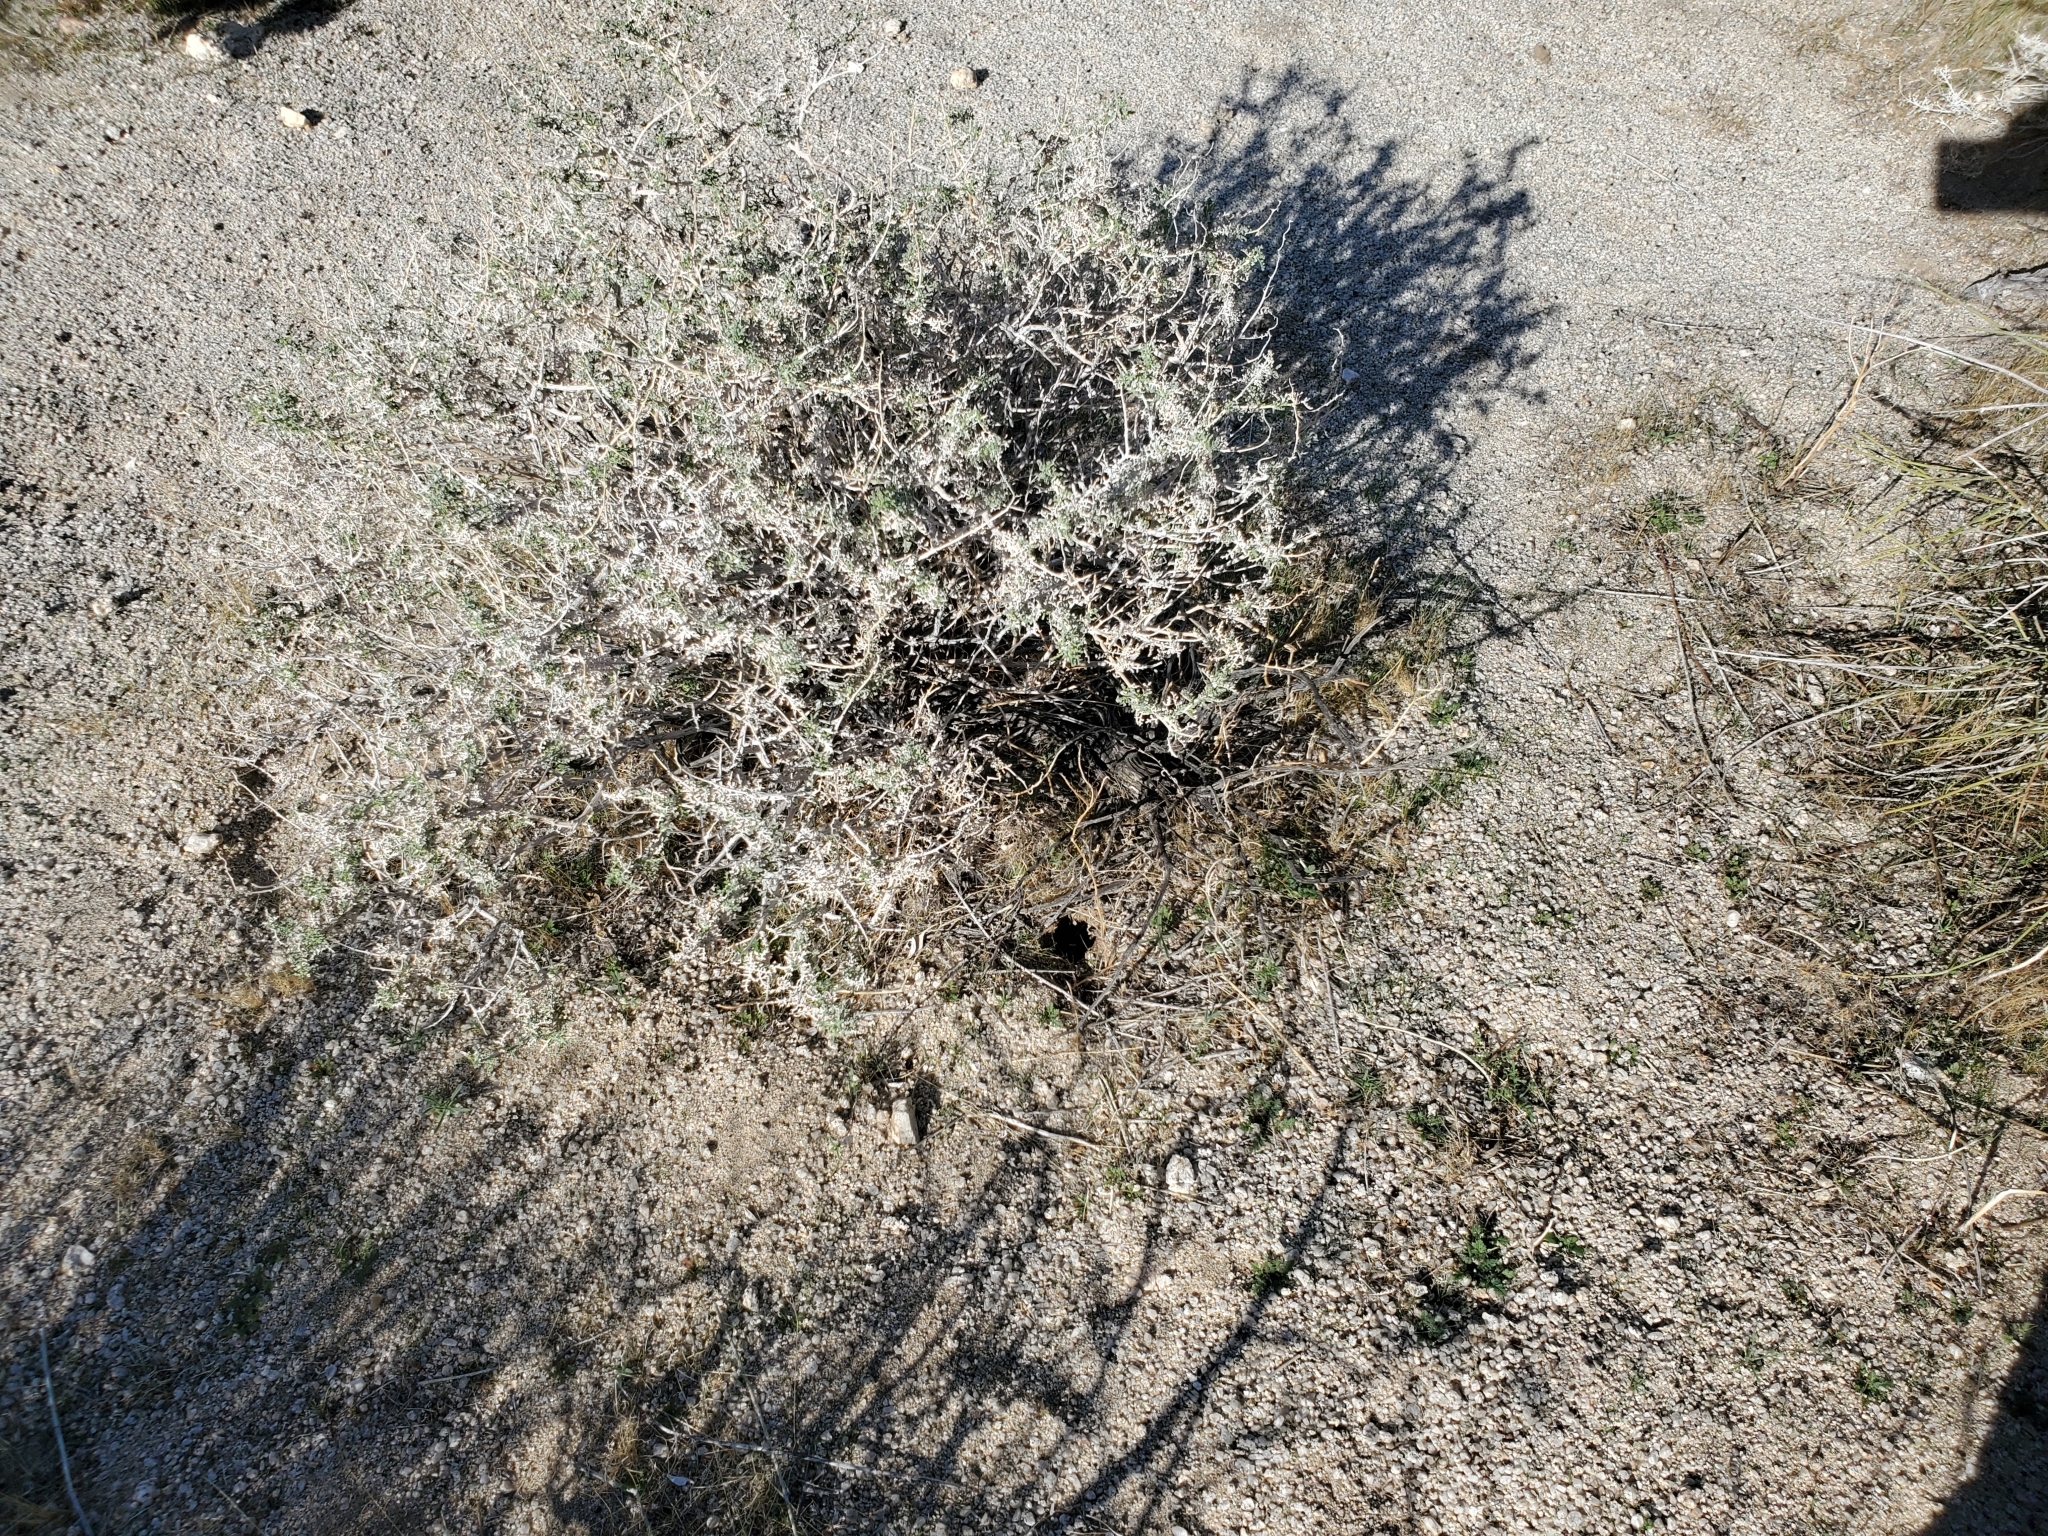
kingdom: Plantae
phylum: Tracheophyta
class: Magnoliopsida
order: Asterales
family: Asteraceae
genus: Ambrosia
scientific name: Ambrosia dumosa
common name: Bur-sage
